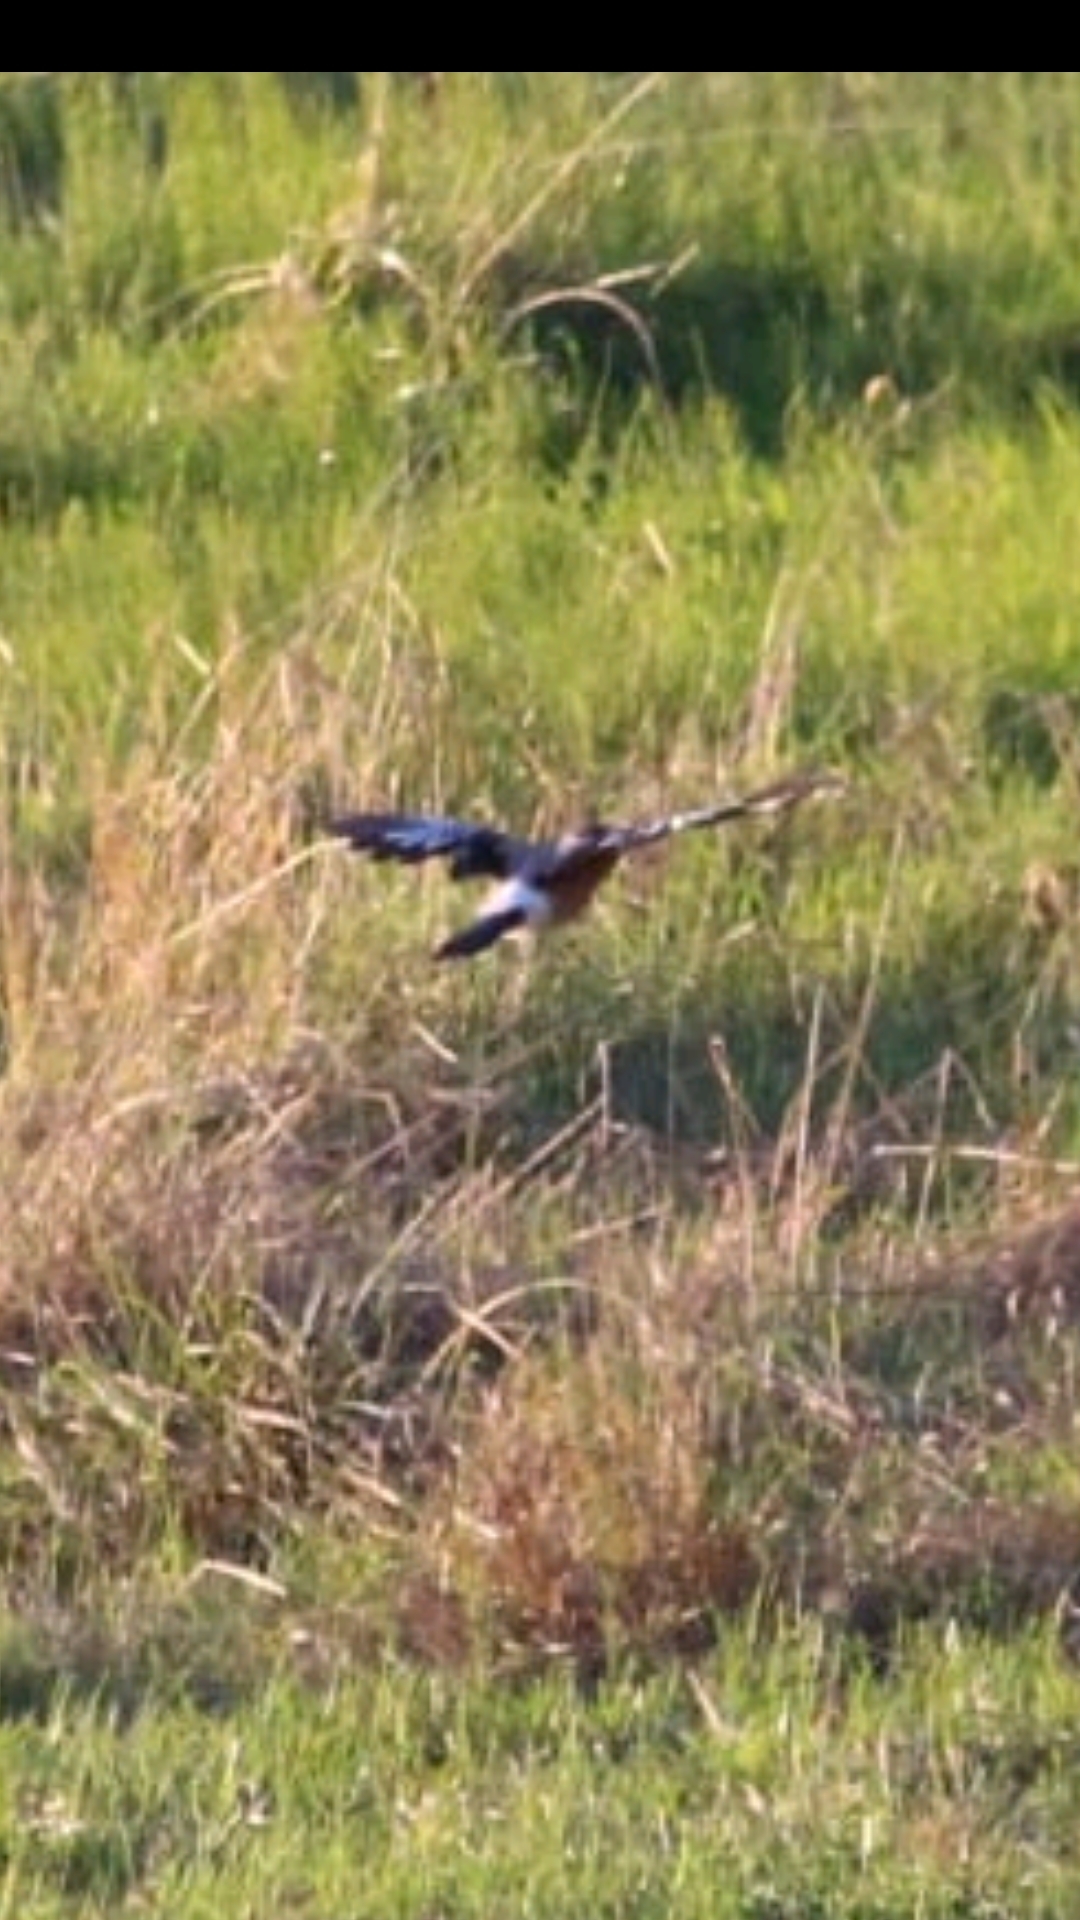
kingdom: Animalia
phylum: Chordata
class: Aves
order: Passeriformes
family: Corvidae
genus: Garrulus
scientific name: Garrulus glandarius
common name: Eurasian jay
